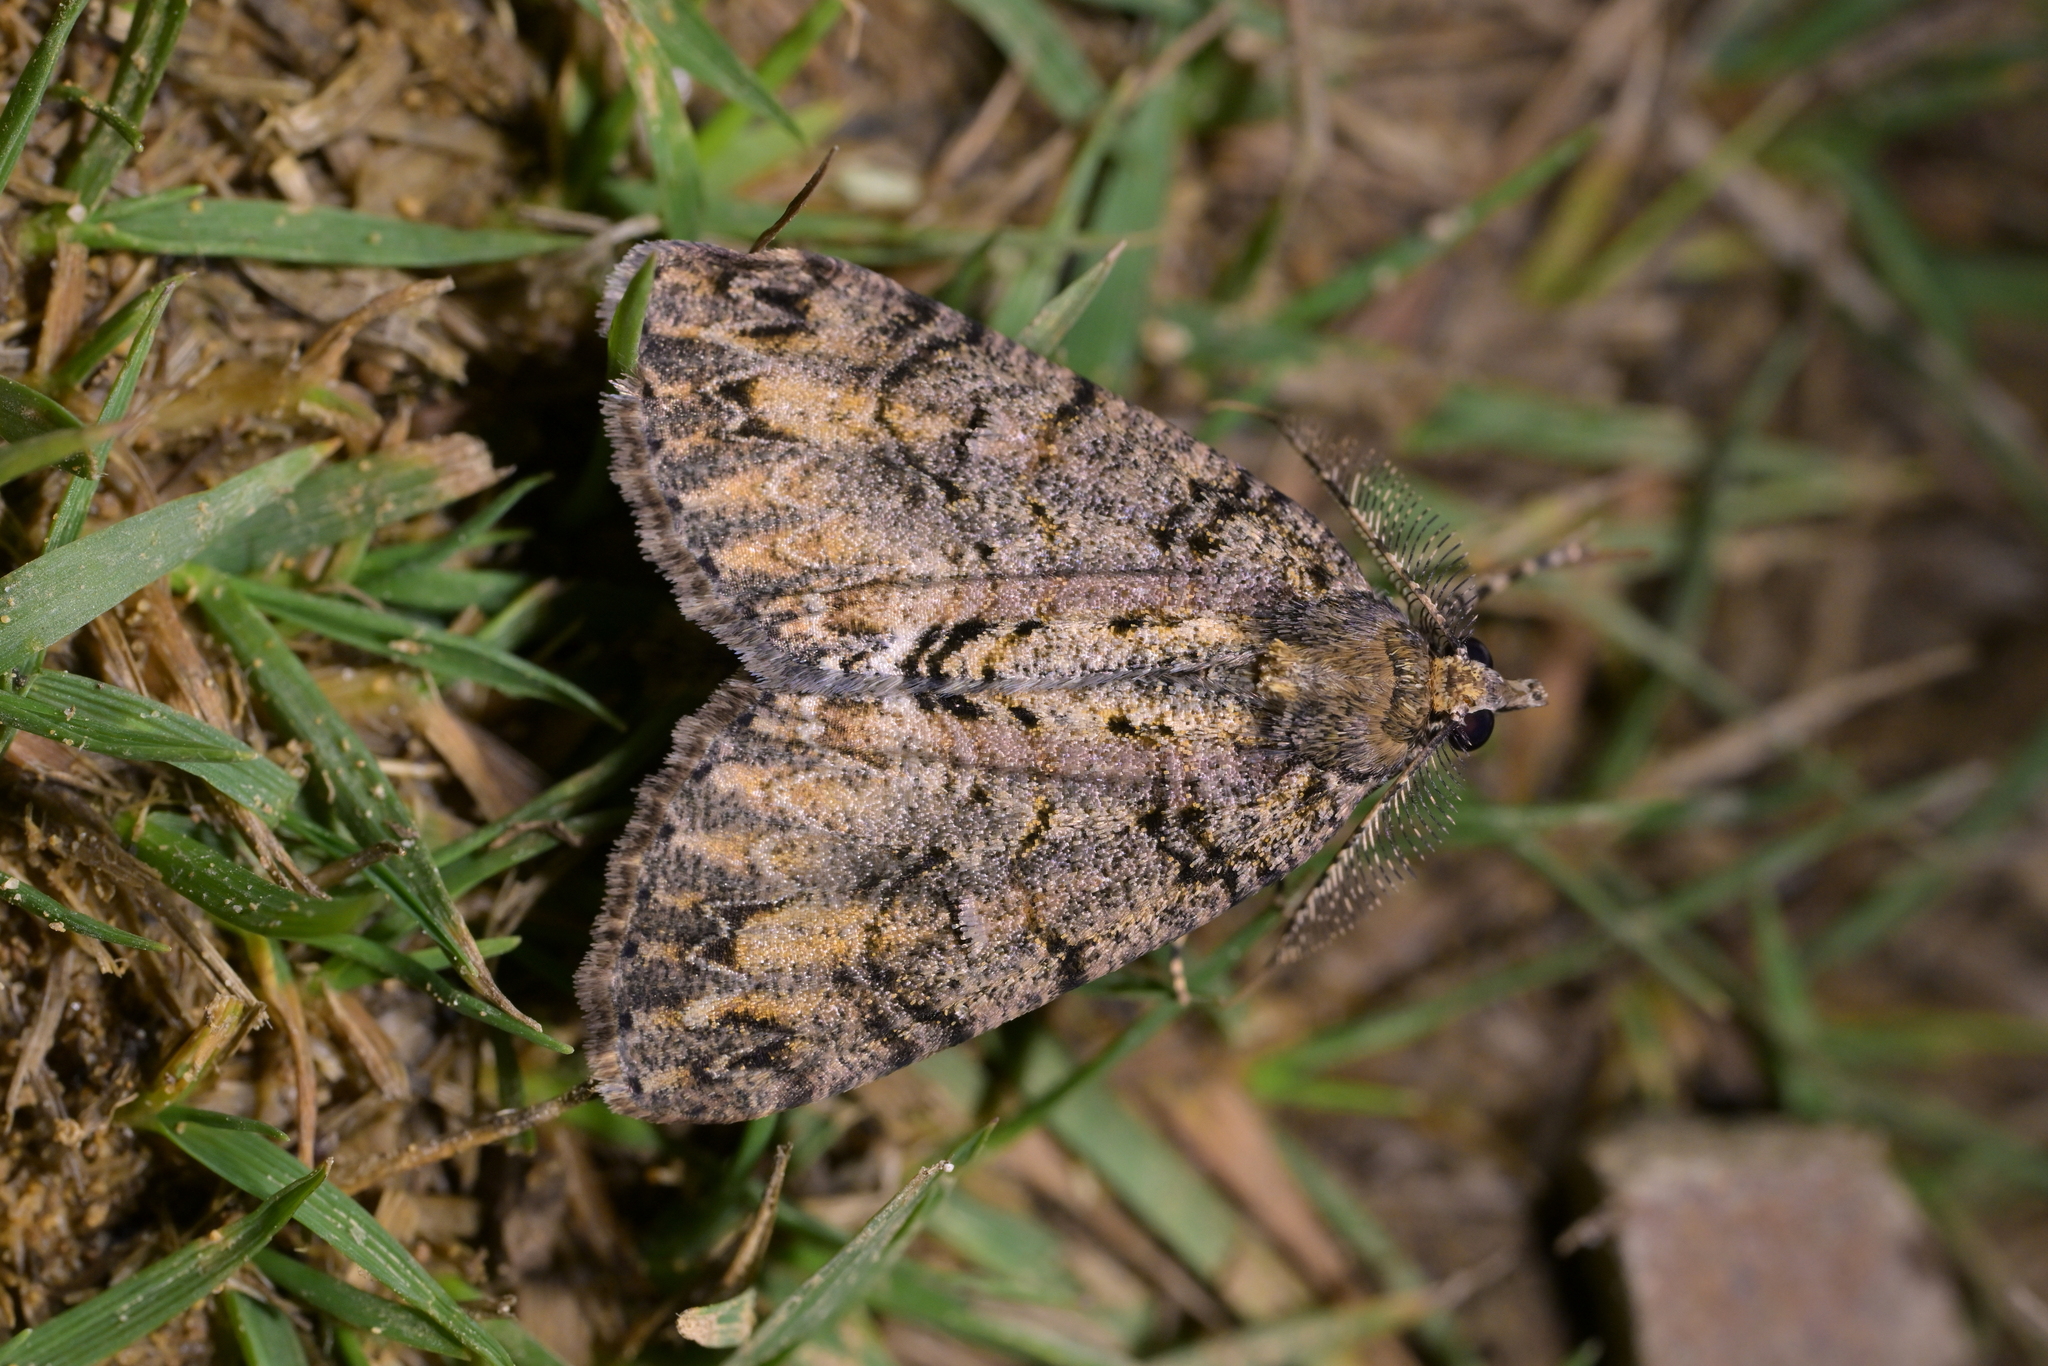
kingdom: Animalia
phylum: Arthropoda
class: Insecta
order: Lepidoptera
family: Geometridae
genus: Pseudocoremia
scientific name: Pseudocoremia suavis
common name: Common forest looper
